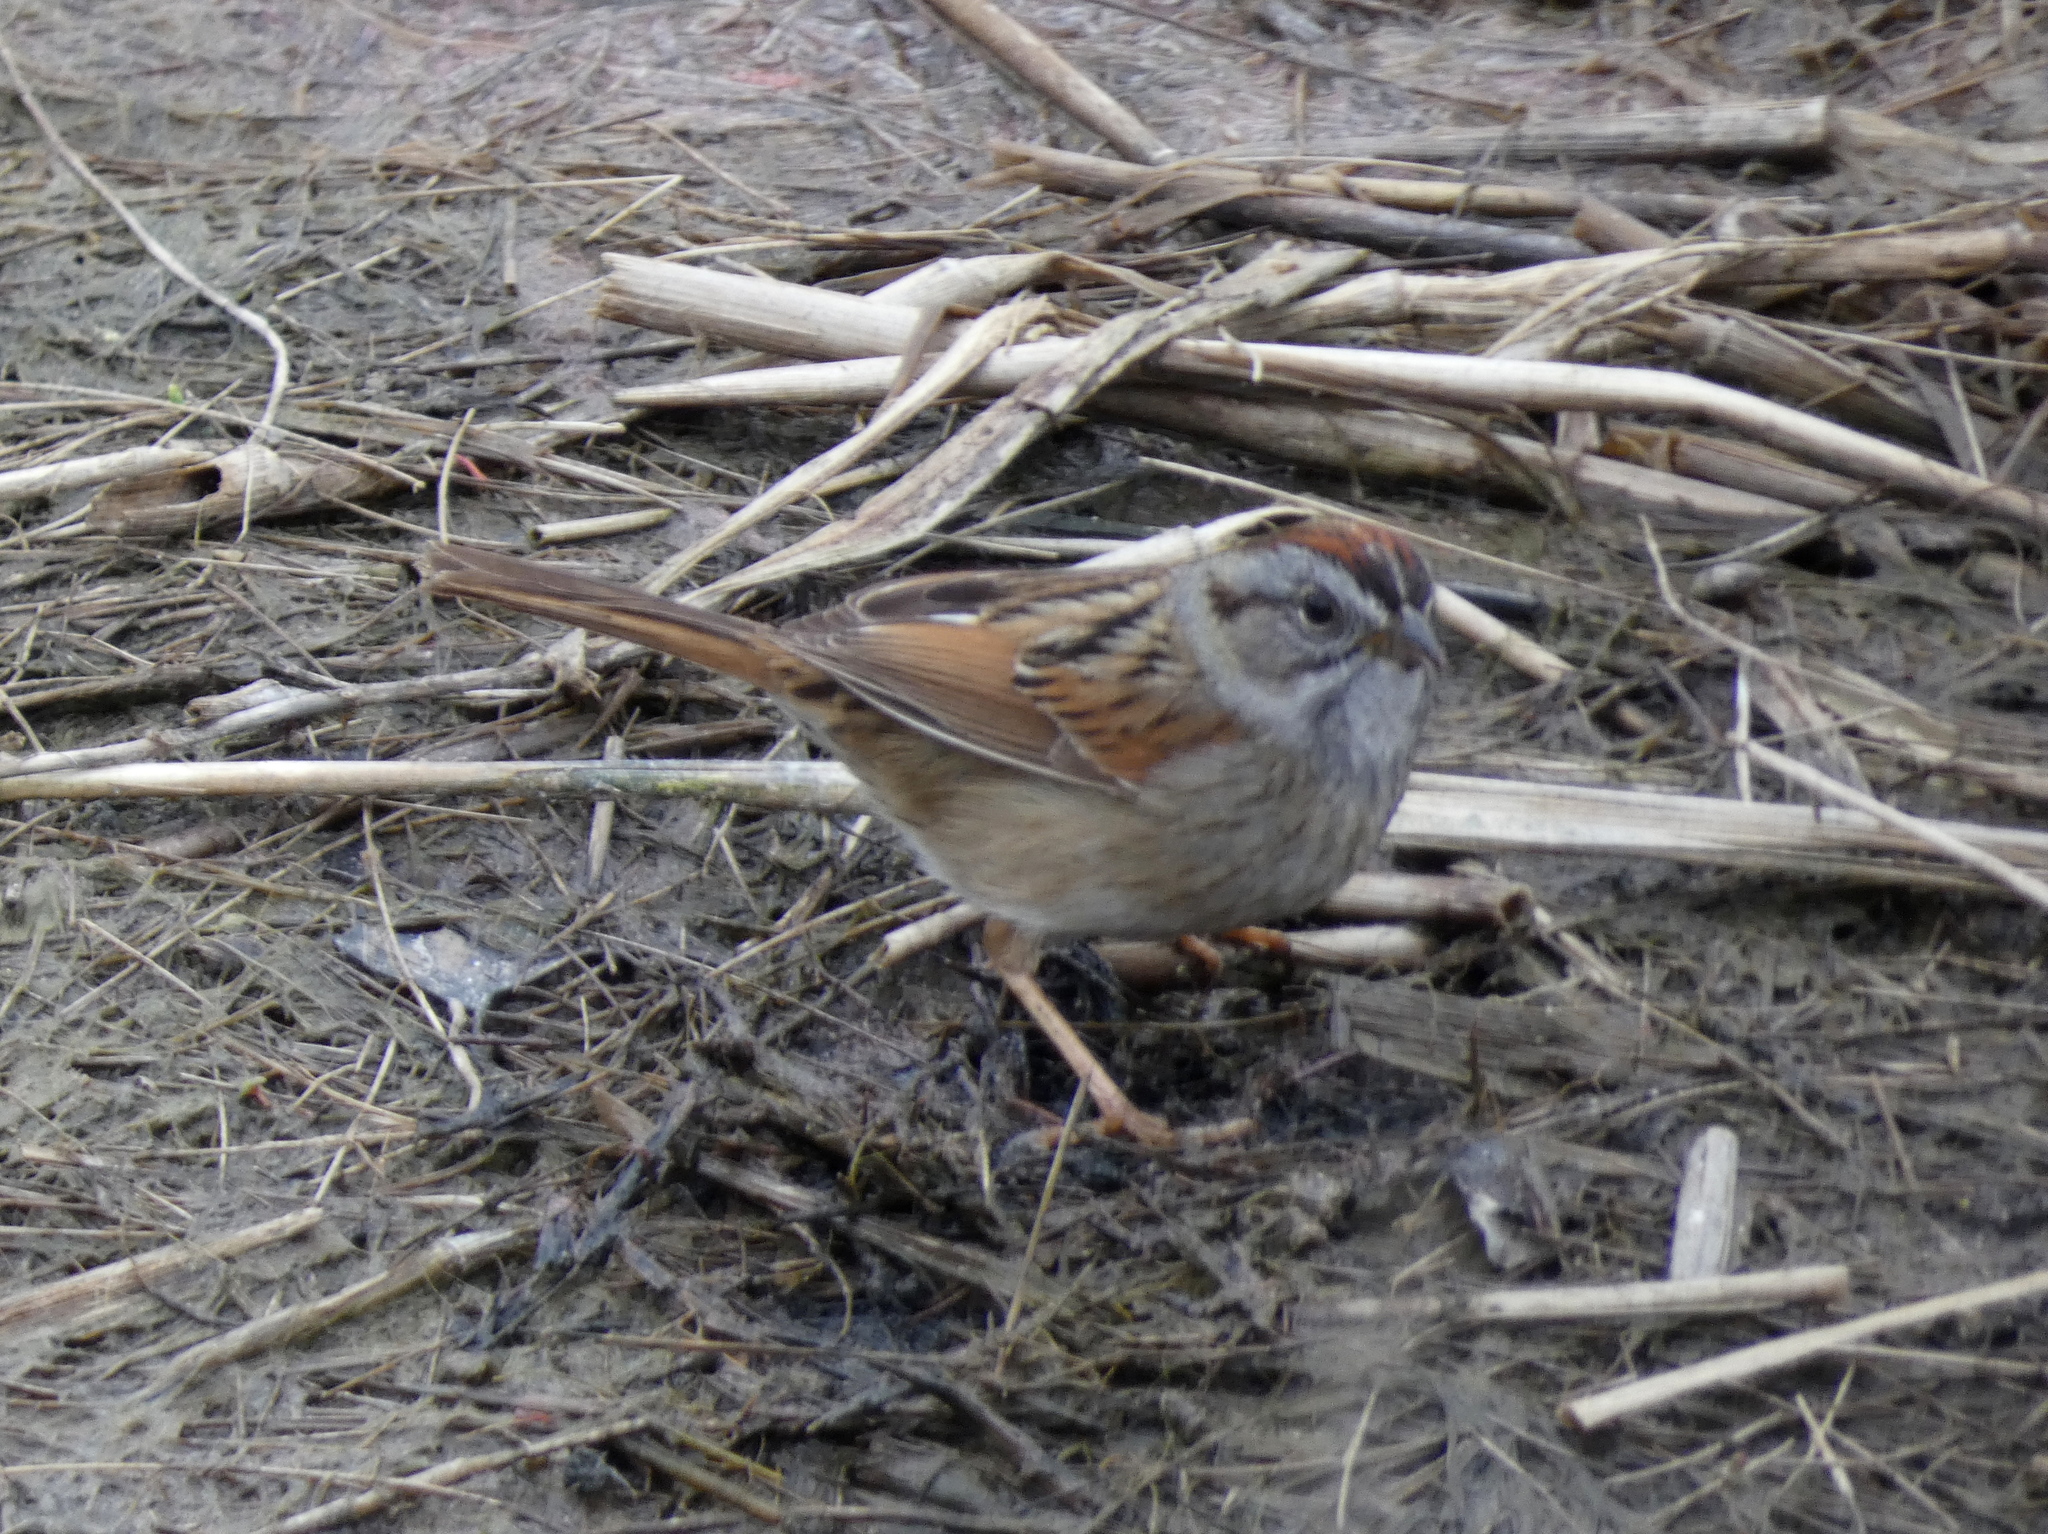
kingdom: Animalia
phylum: Chordata
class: Aves
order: Passeriformes
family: Passerellidae
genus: Melospiza
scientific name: Melospiza georgiana
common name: Swamp sparrow
